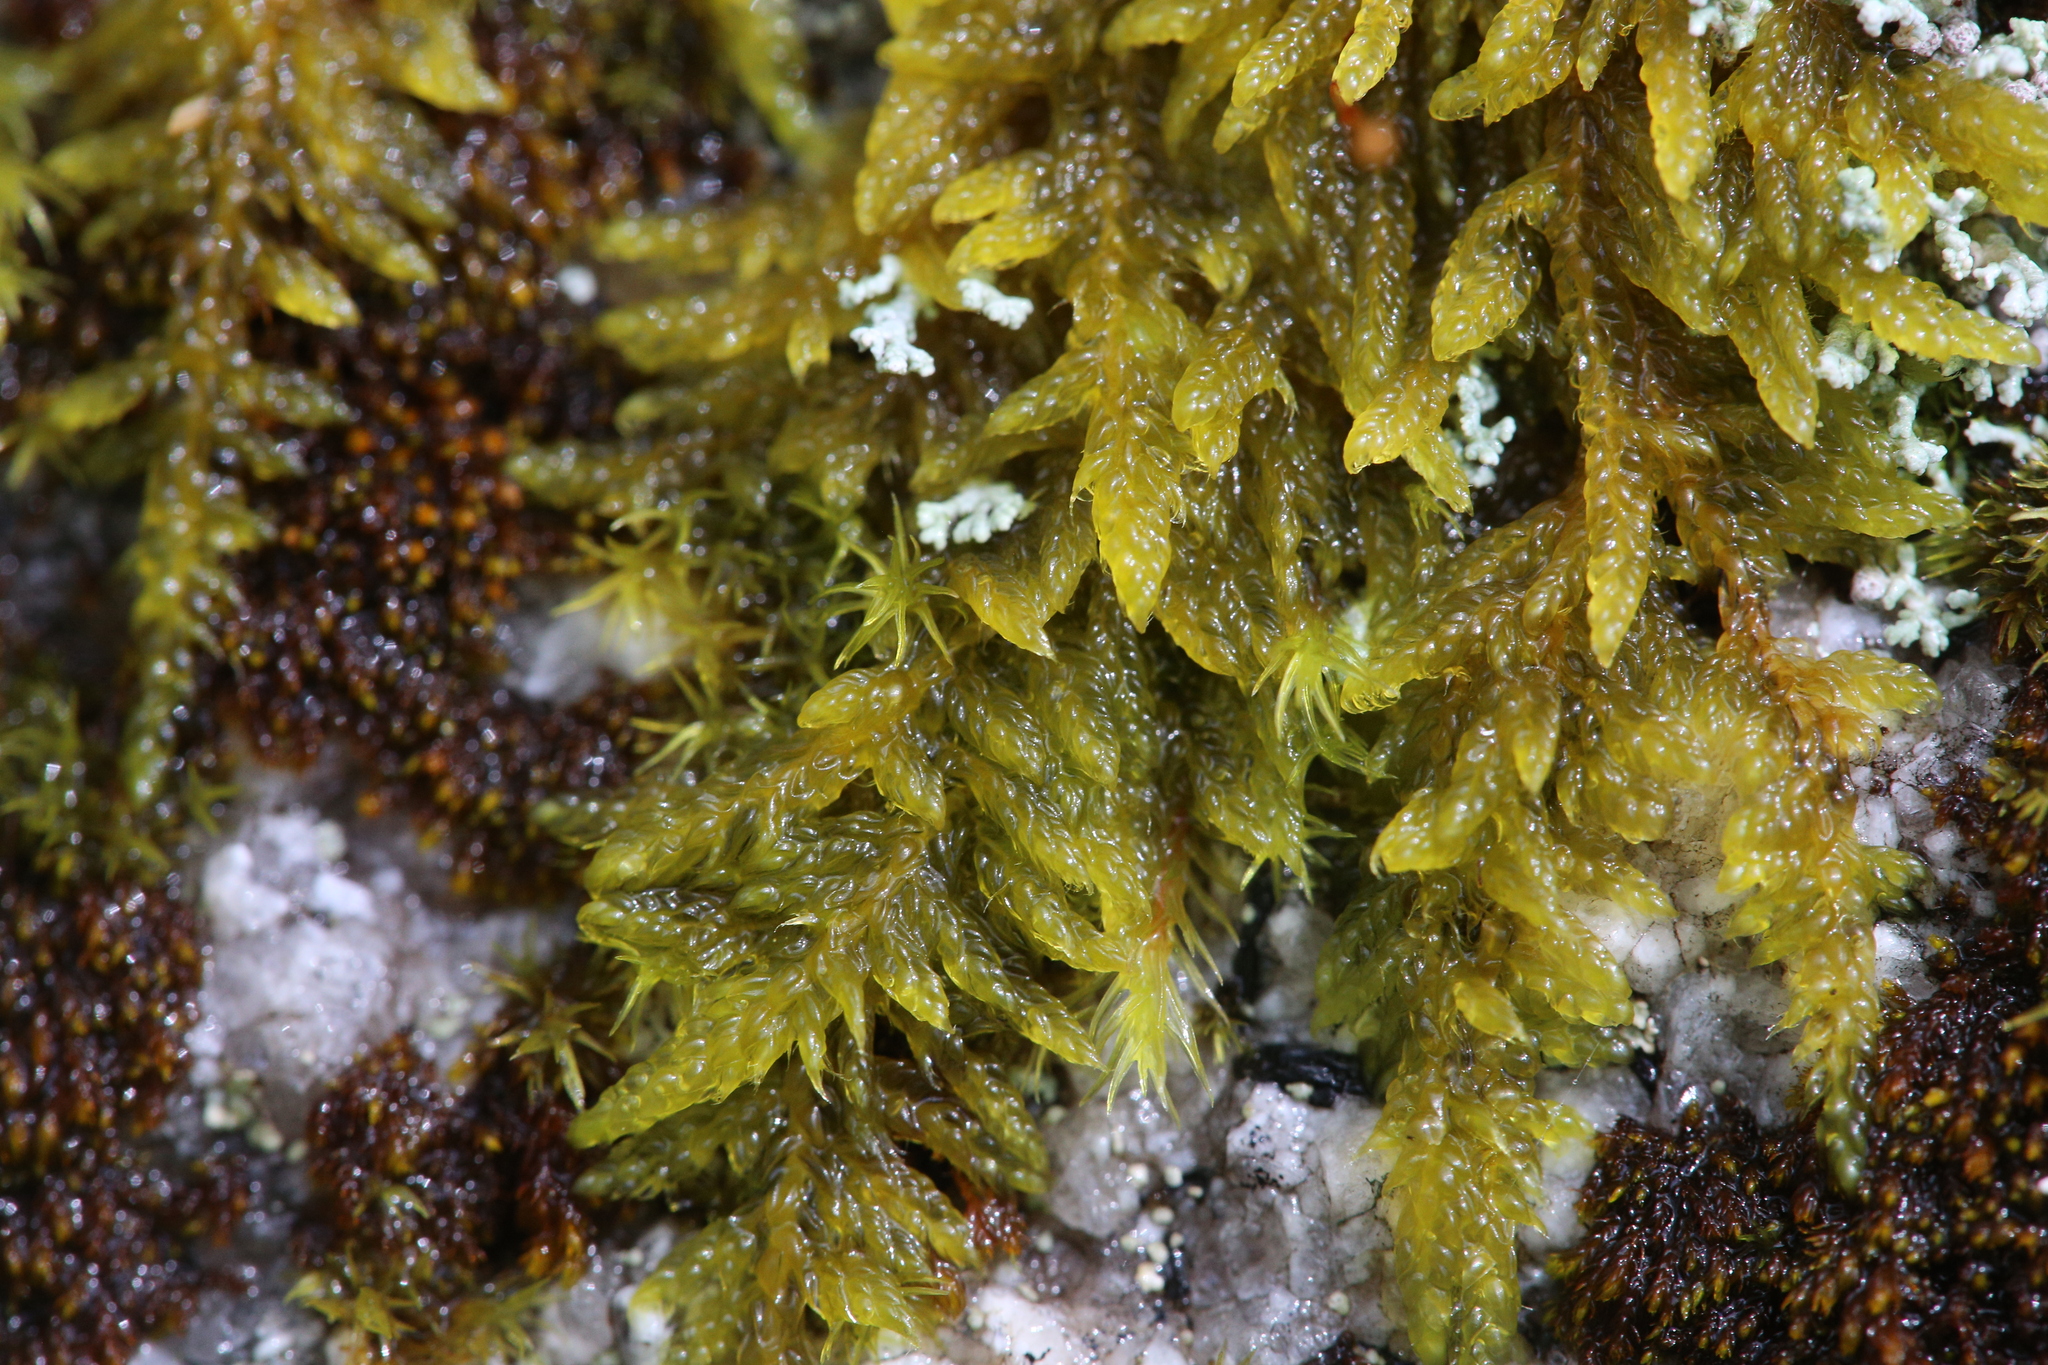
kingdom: Plantae
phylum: Bryophyta
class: Bryopsida
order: Hypnales
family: Hypnaceae
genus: Hypnum
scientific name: Hypnum cupressiforme
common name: Cypress-leaved plait-moss
